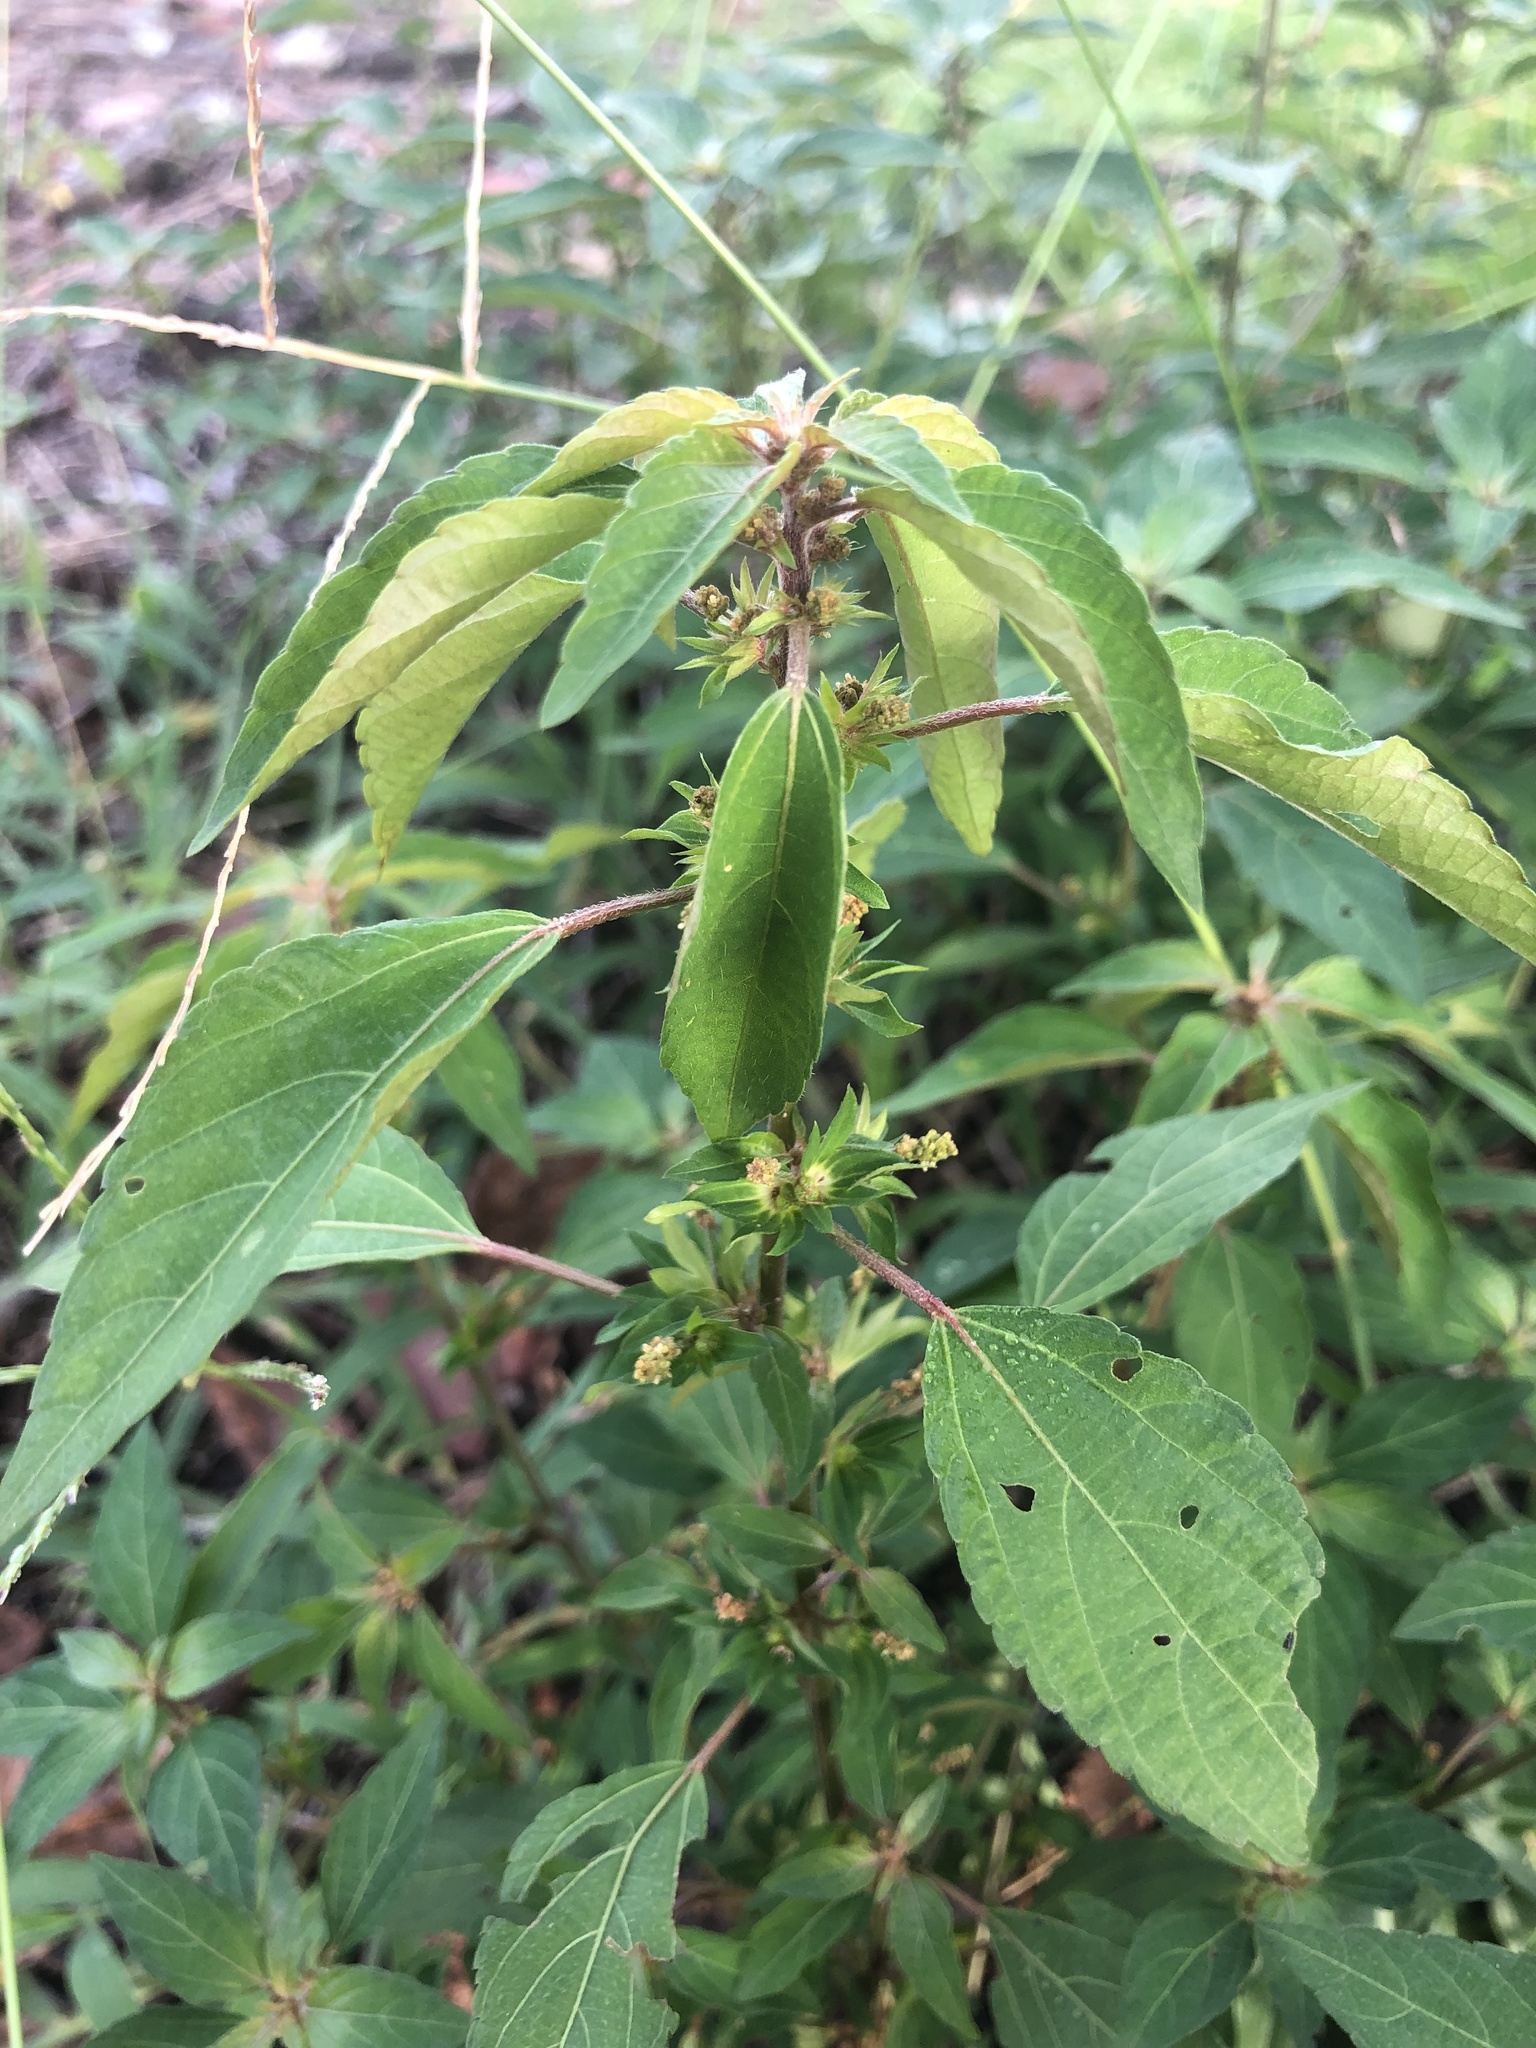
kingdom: Plantae
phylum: Tracheophyta
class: Magnoliopsida
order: Malpighiales
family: Euphorbiaceae
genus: Acalypha
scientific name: Acalypha rhomboidea
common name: Rhombic copperleaf
